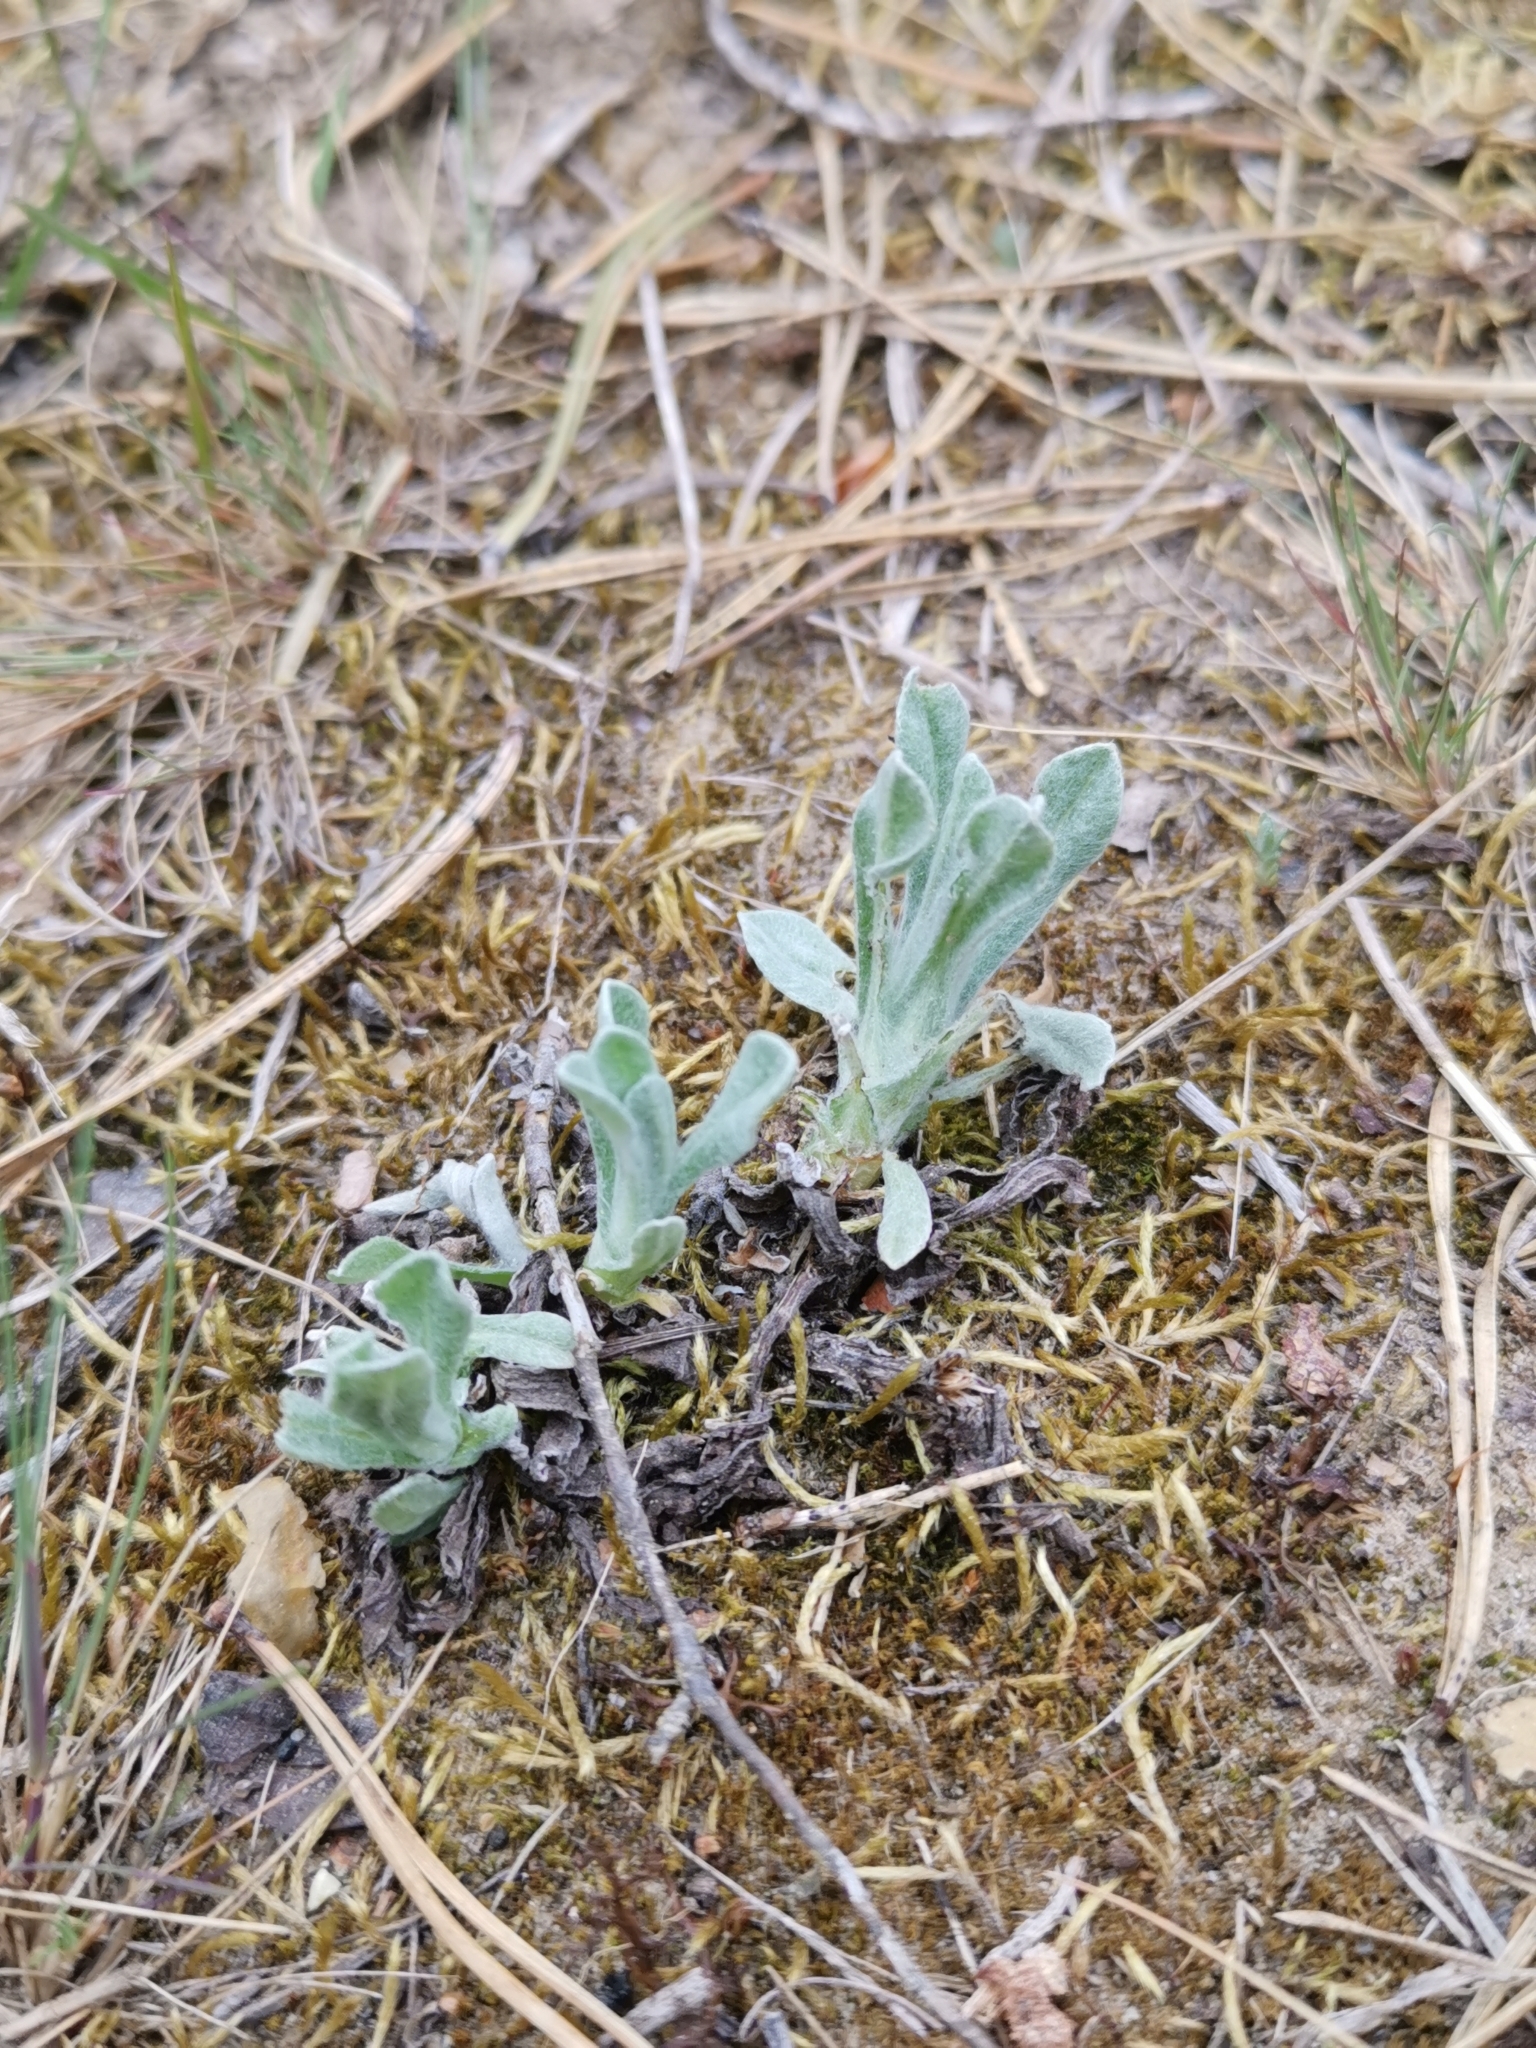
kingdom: Plantae
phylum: Tracheophyta
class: Magnoliopsida
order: Asterales
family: Asteraceae
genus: Helichrysum
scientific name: Helichrysum arenarium
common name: Strawflower
